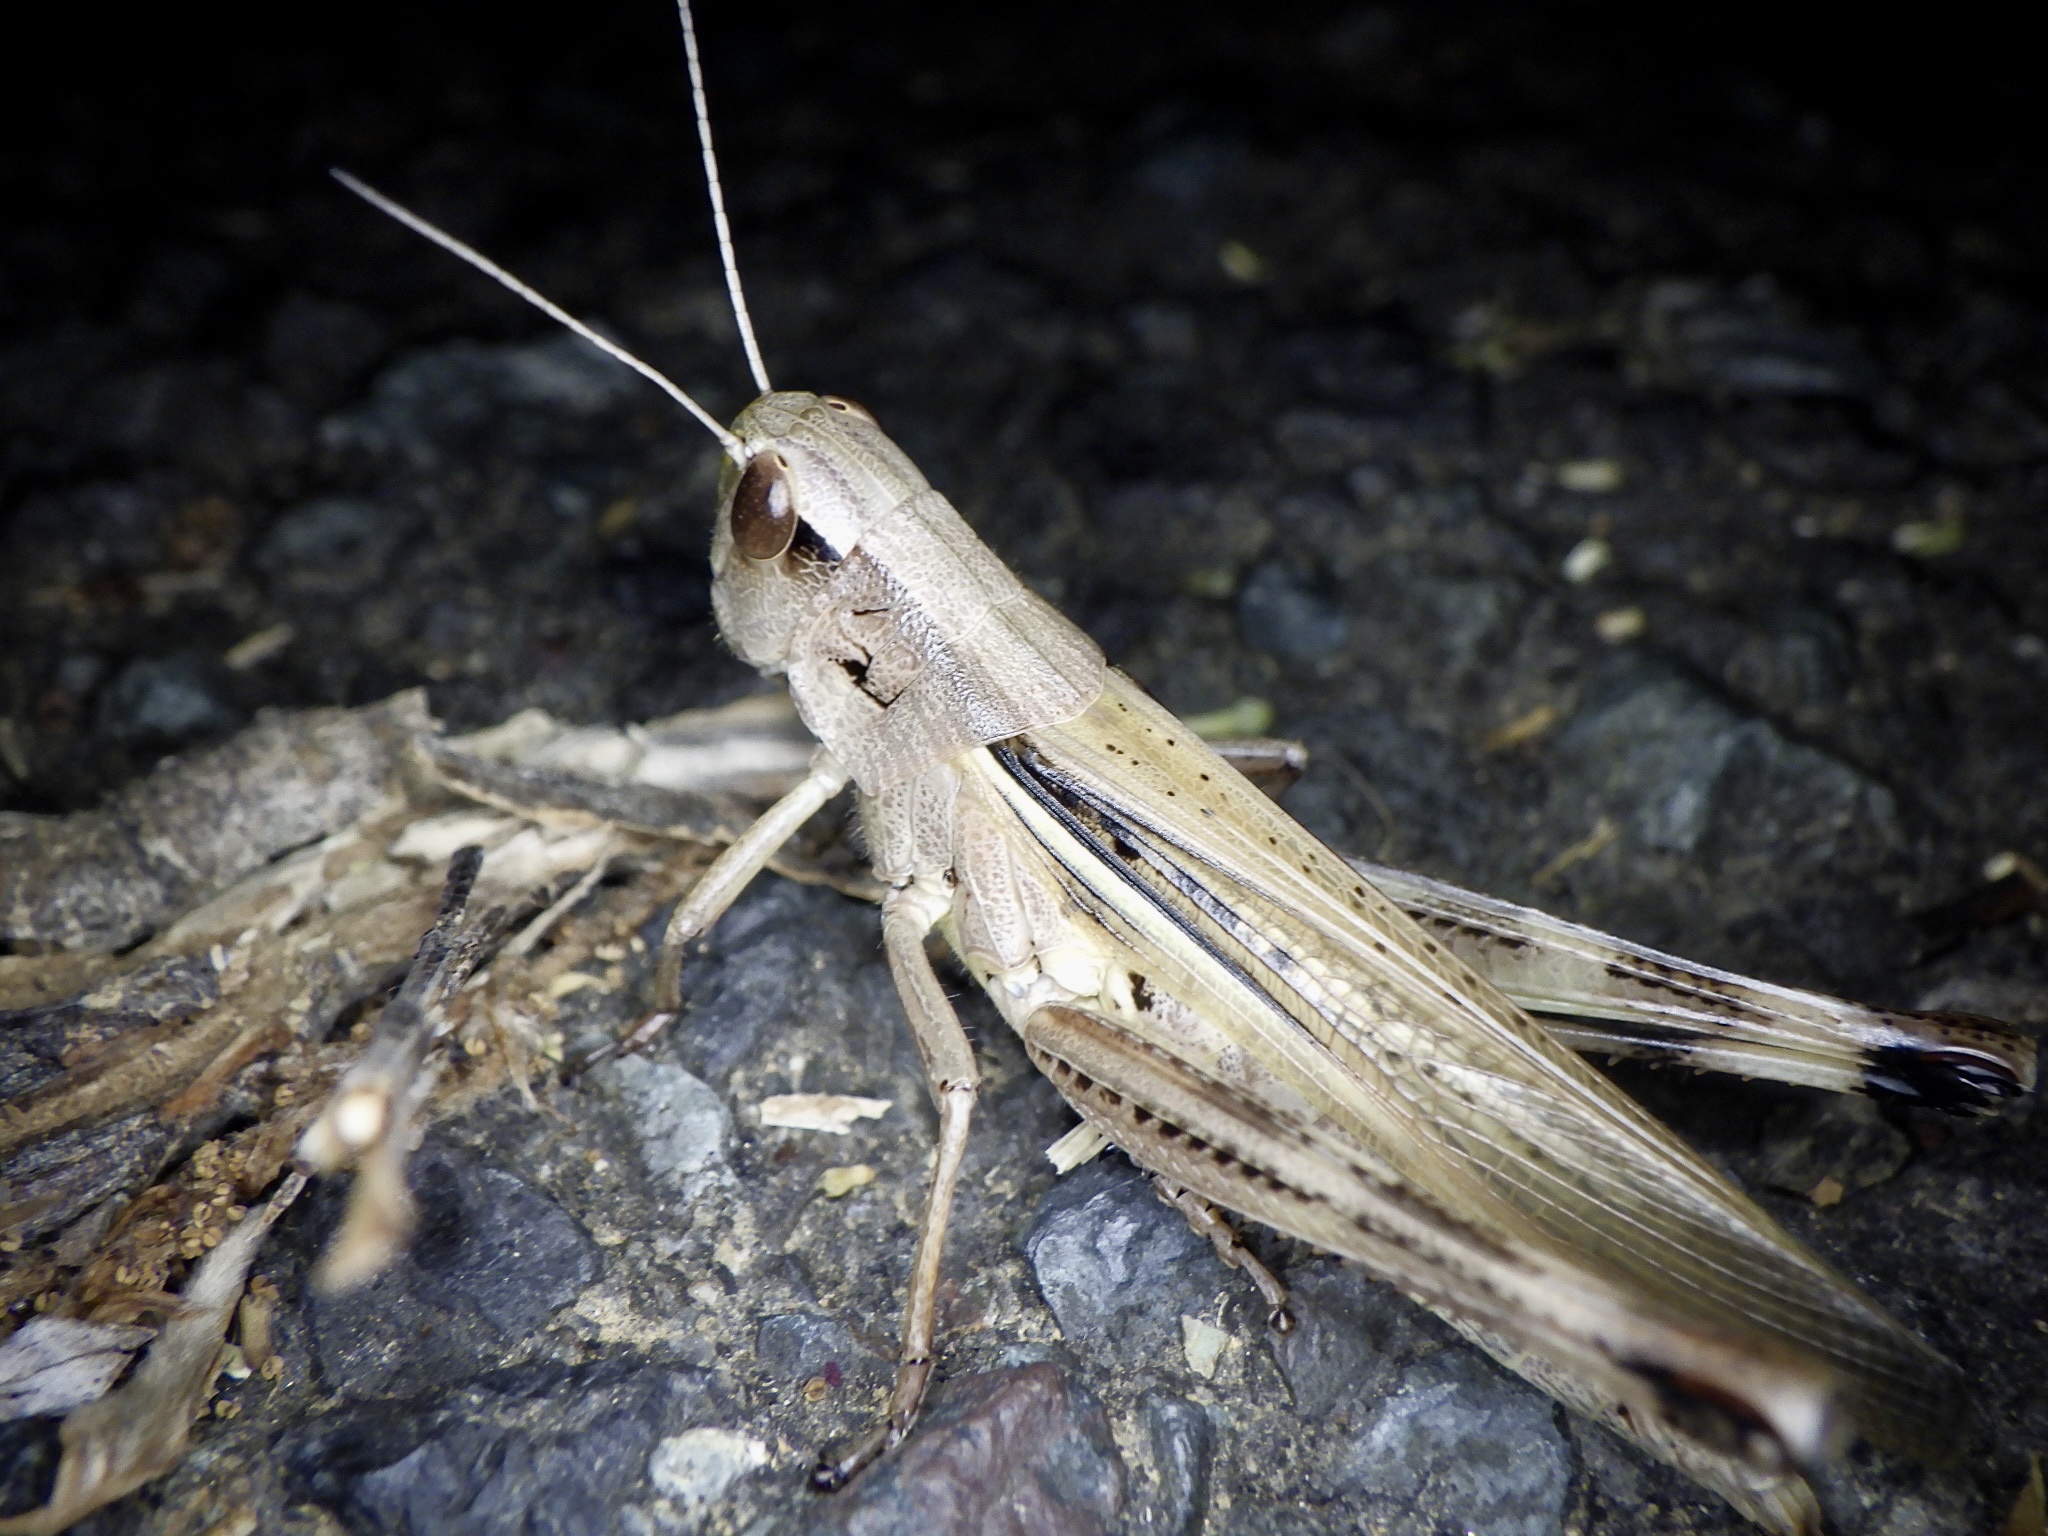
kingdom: Animalia
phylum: Arthropoda
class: Insecta
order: Orthoptera
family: Acrididae
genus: Stethophyma
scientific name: Stethophyma magister
